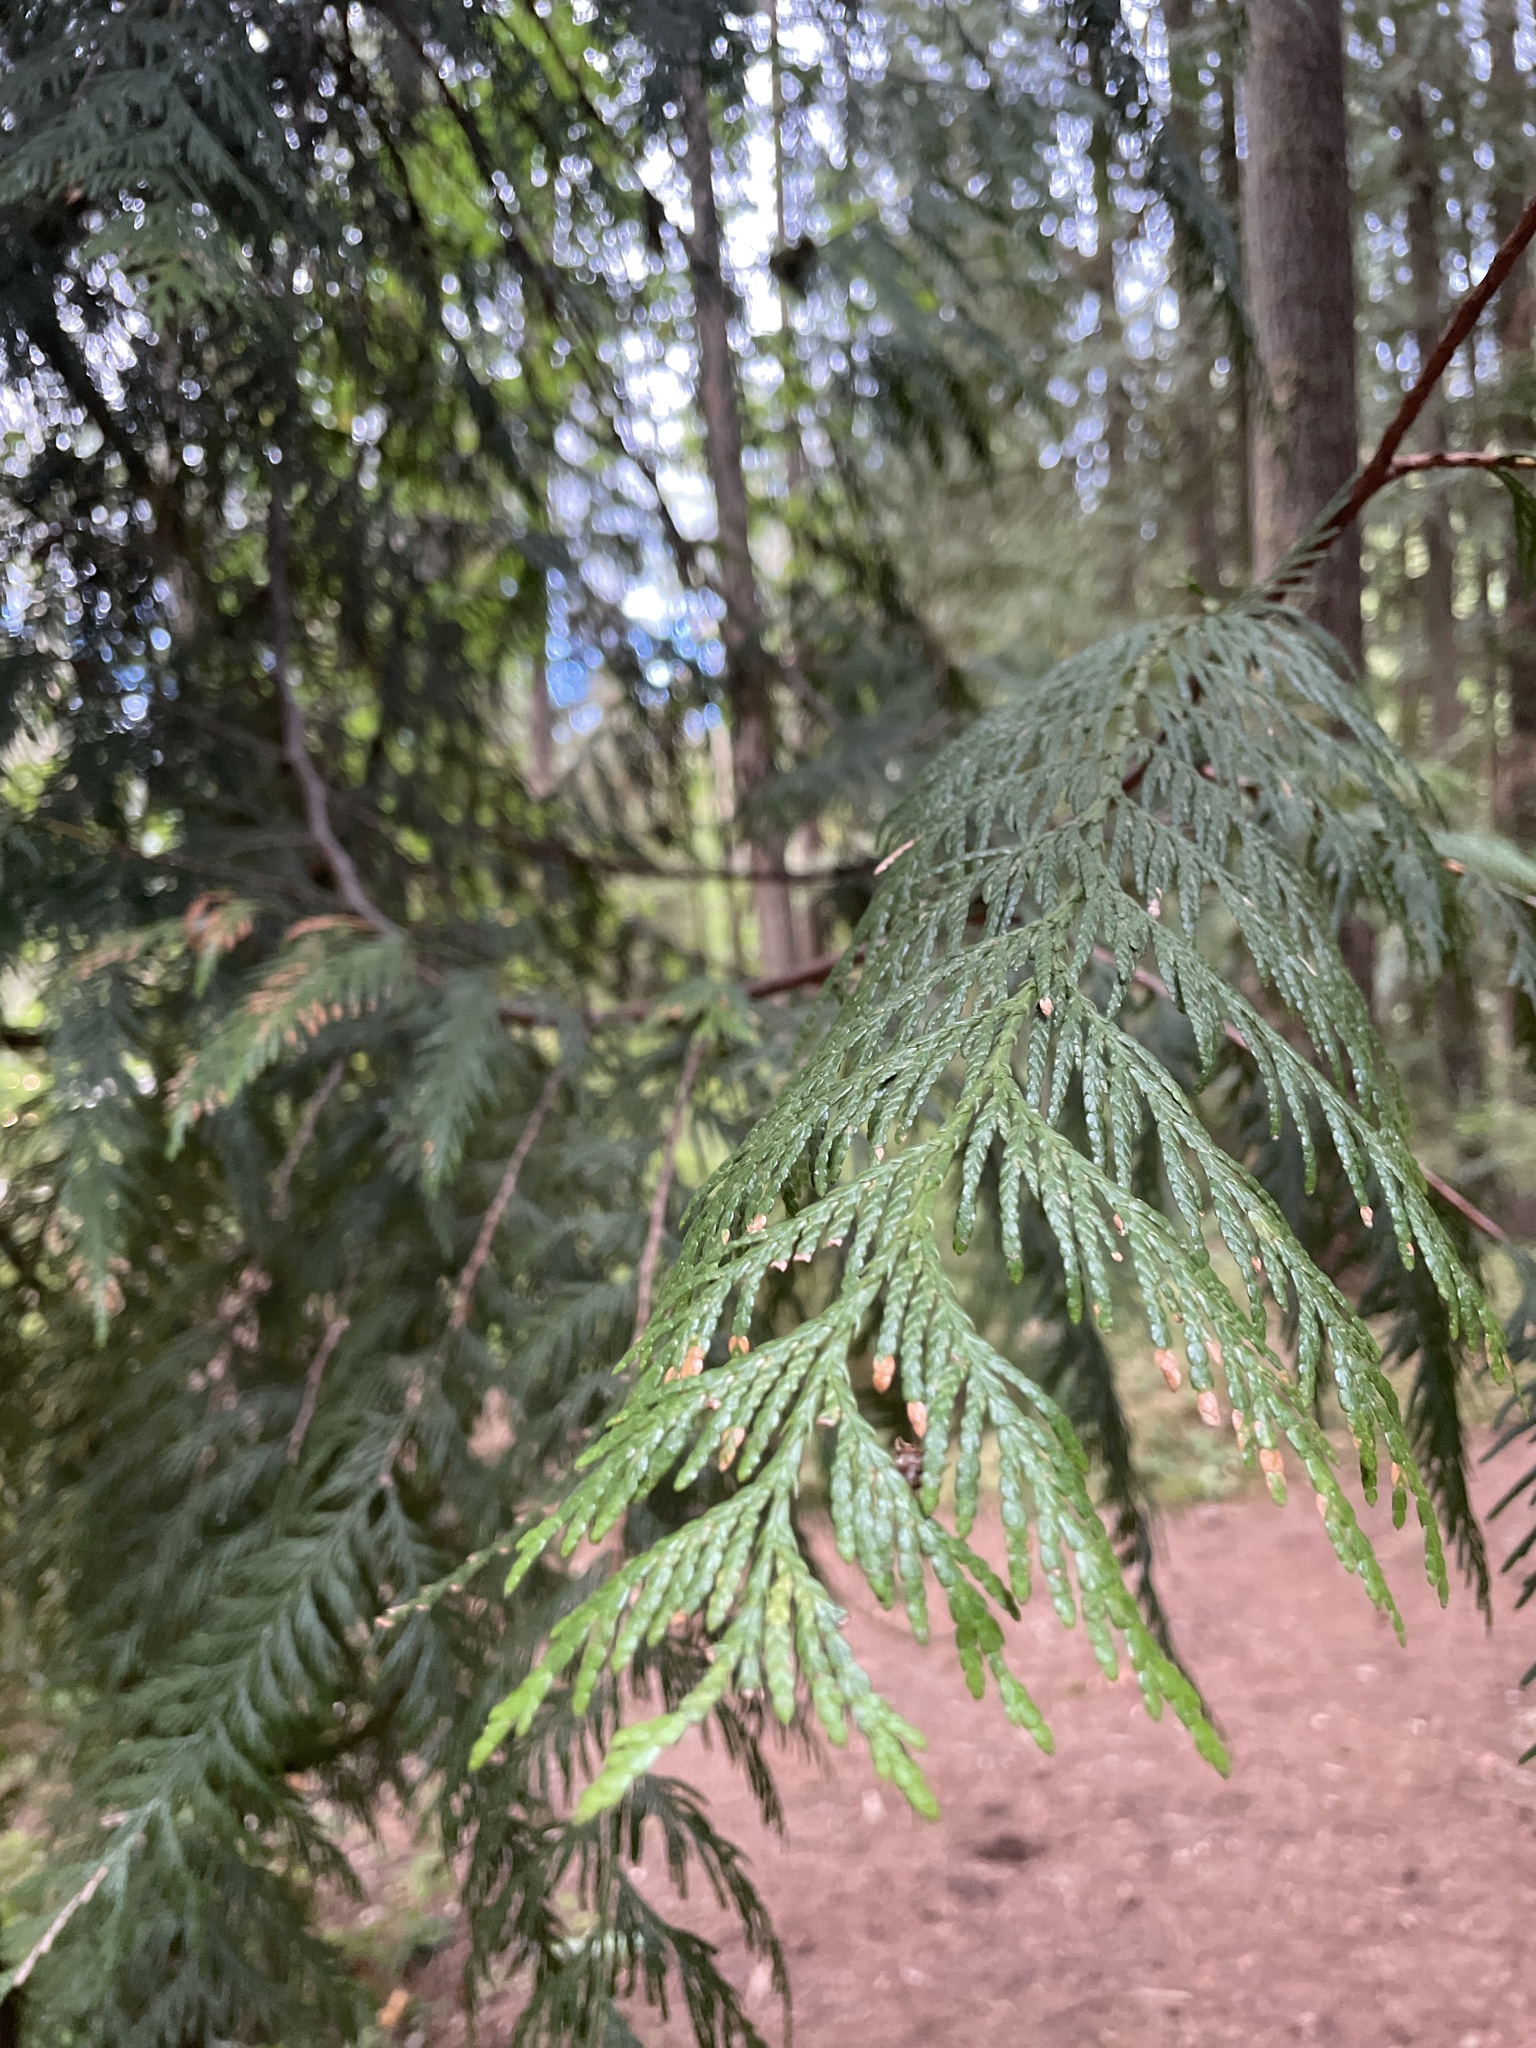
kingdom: Plantae
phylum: Tracheophyta
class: Pinopsida
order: Pinales
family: Cupressaceae
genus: Thuja
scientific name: Thuja plicata
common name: Western red-cedar
